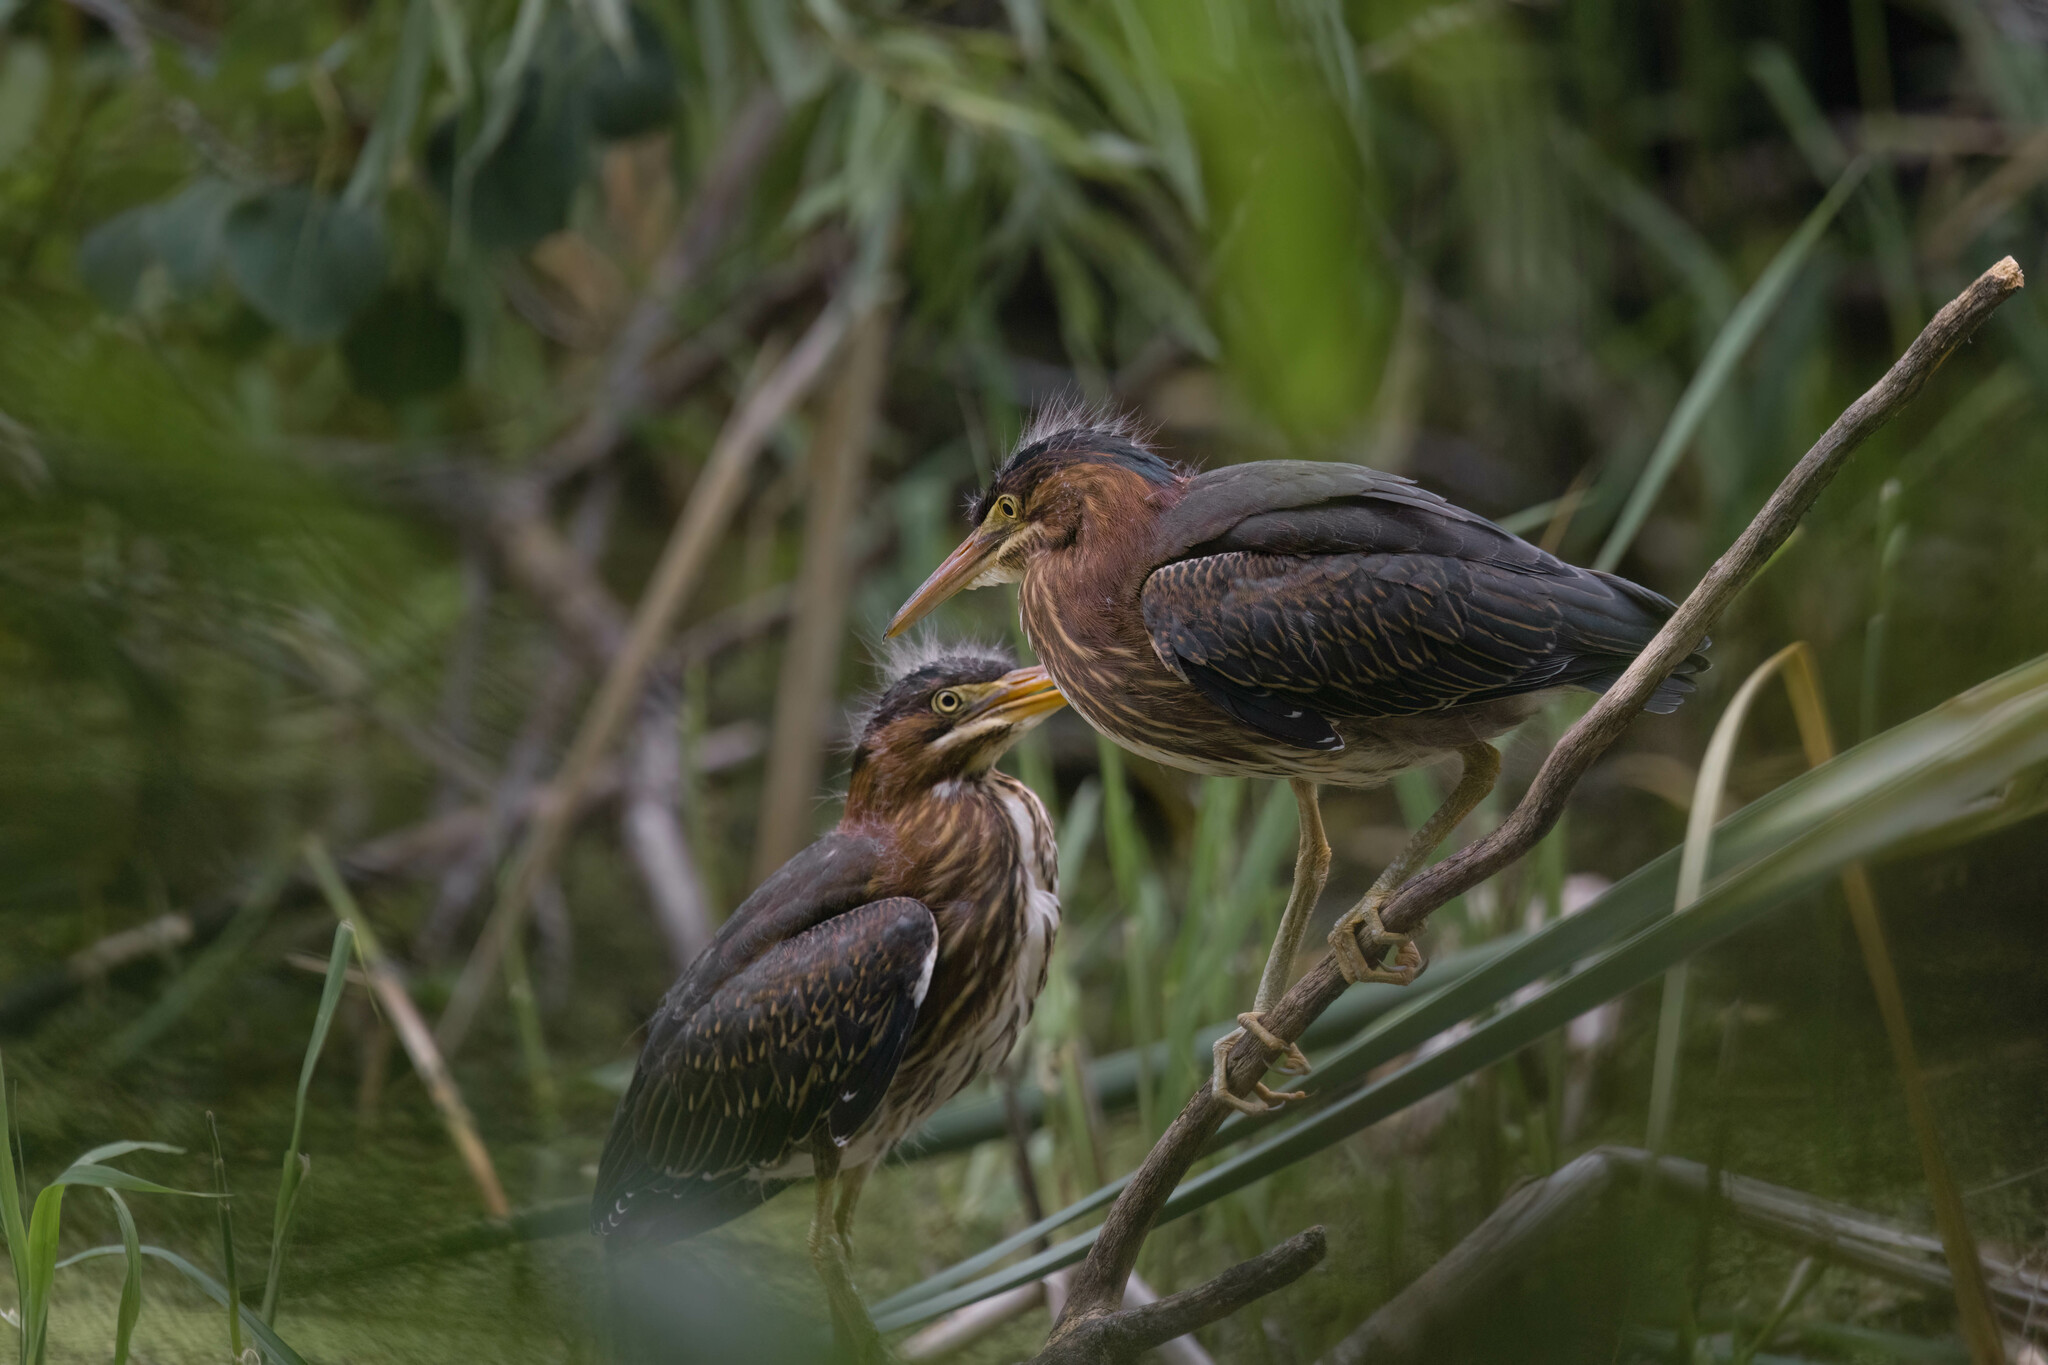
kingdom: Animalia
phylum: Chordata
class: Aves
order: Pelecaniformes
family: Ardeidae
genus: Butorides
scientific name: Butorides virescens
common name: Green heron
